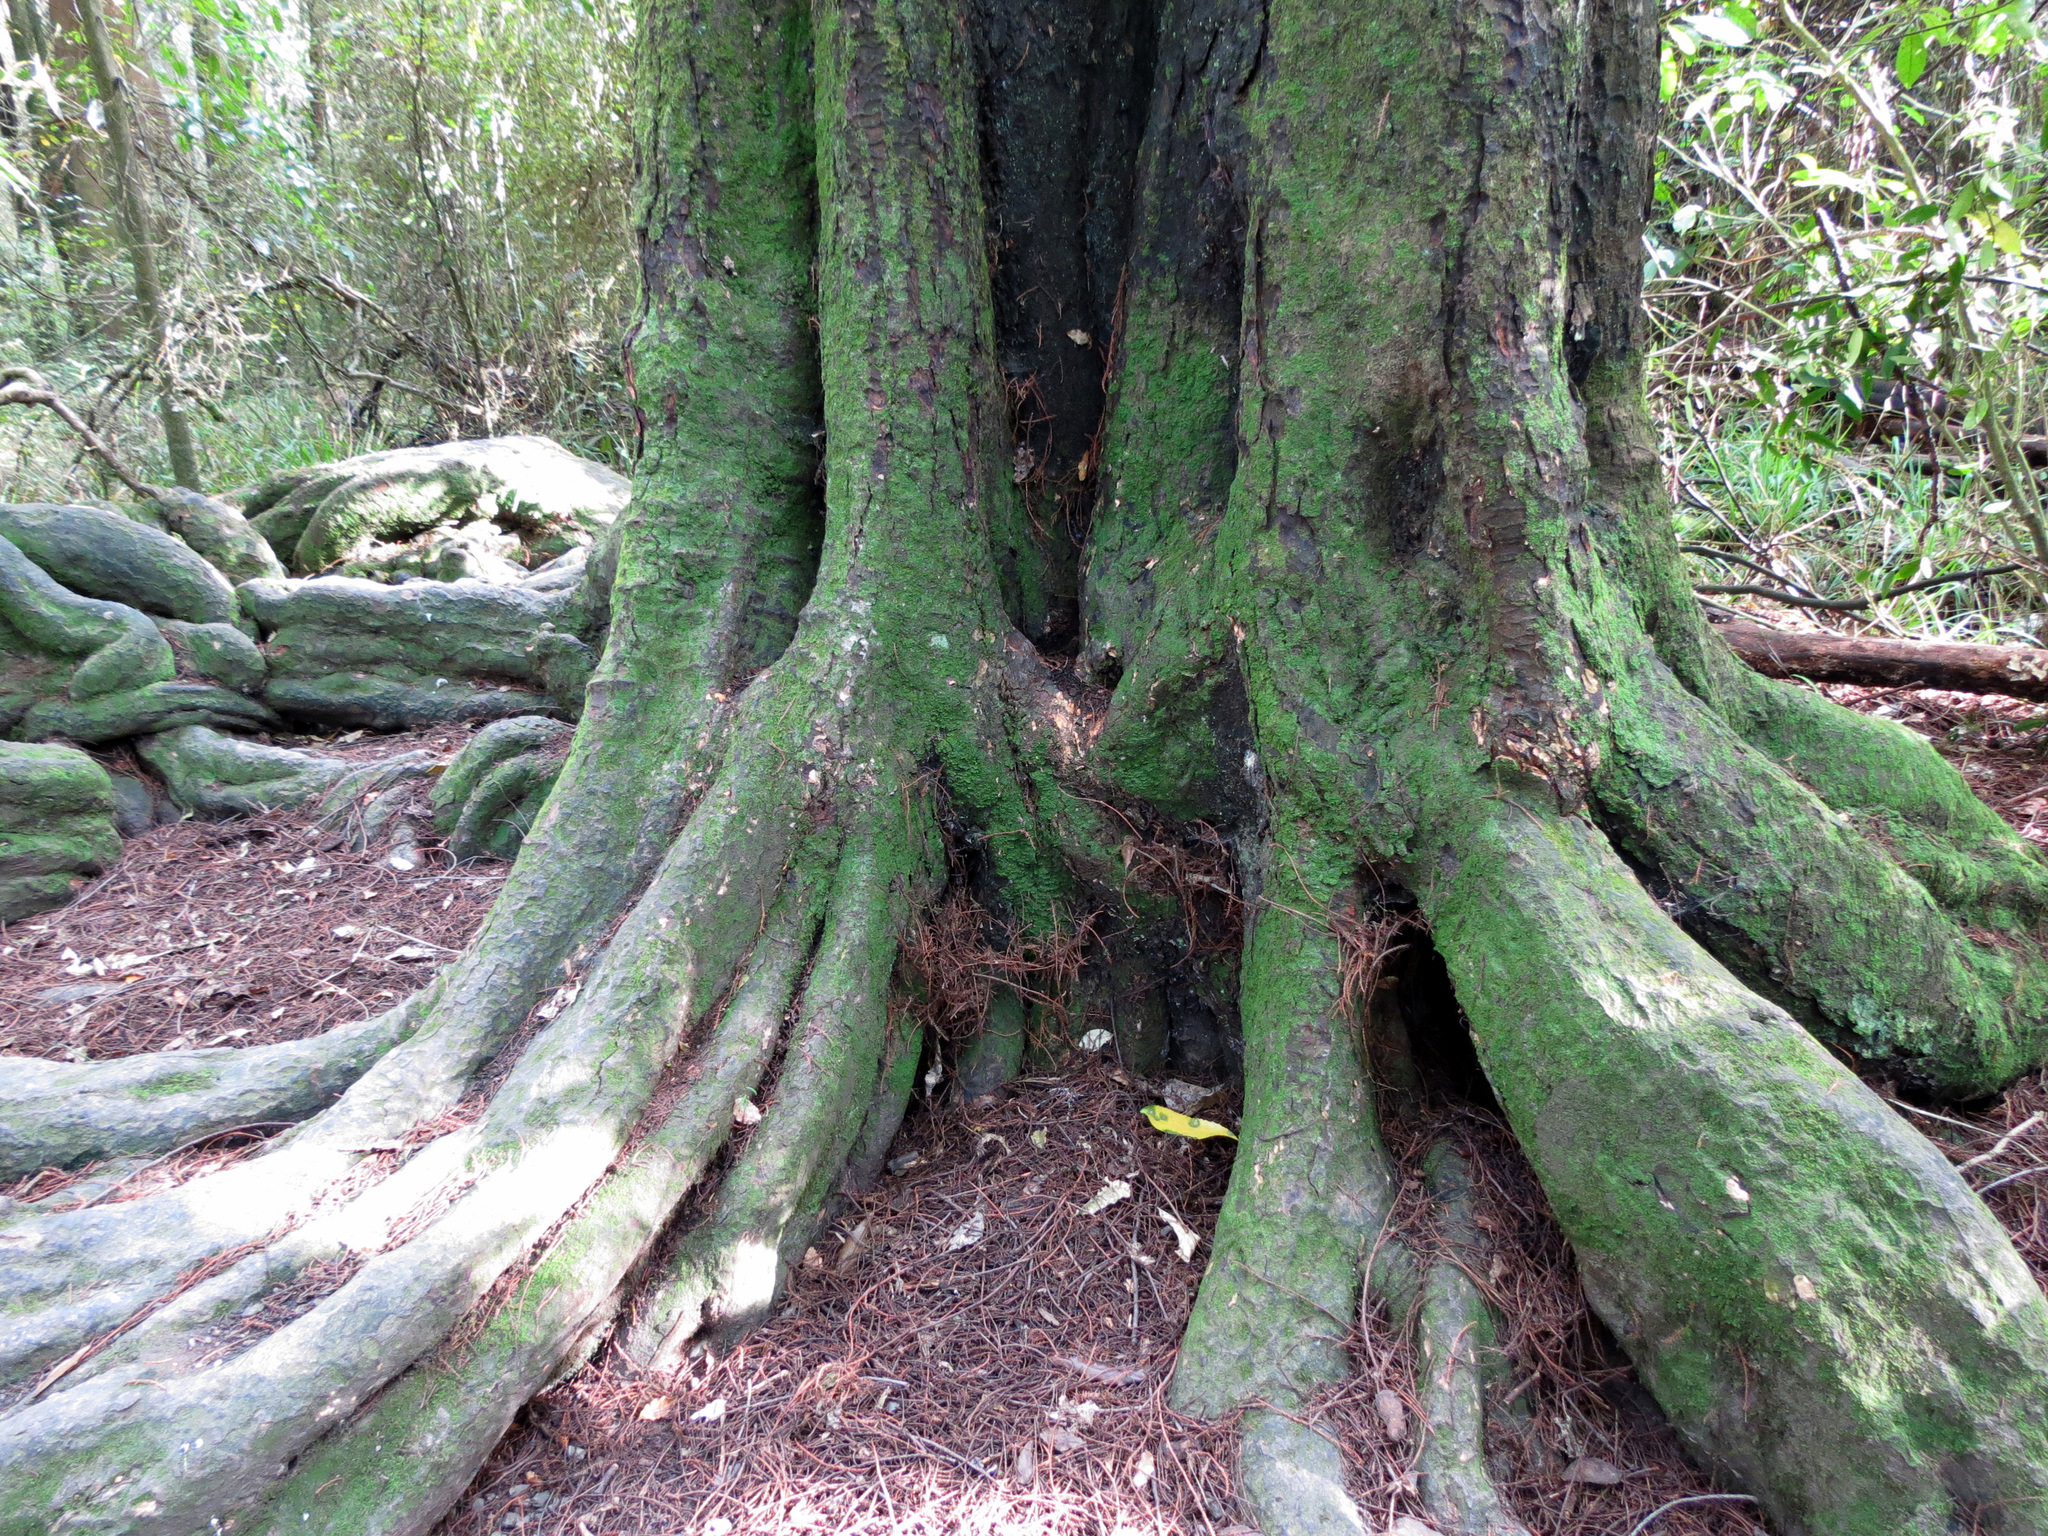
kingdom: Plantae
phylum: Tracheophyta
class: Pinopsida
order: Pinales
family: Podocarpaceae
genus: Dacrycarpus
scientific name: Dacrycarpus dacrydioides
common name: White pine
